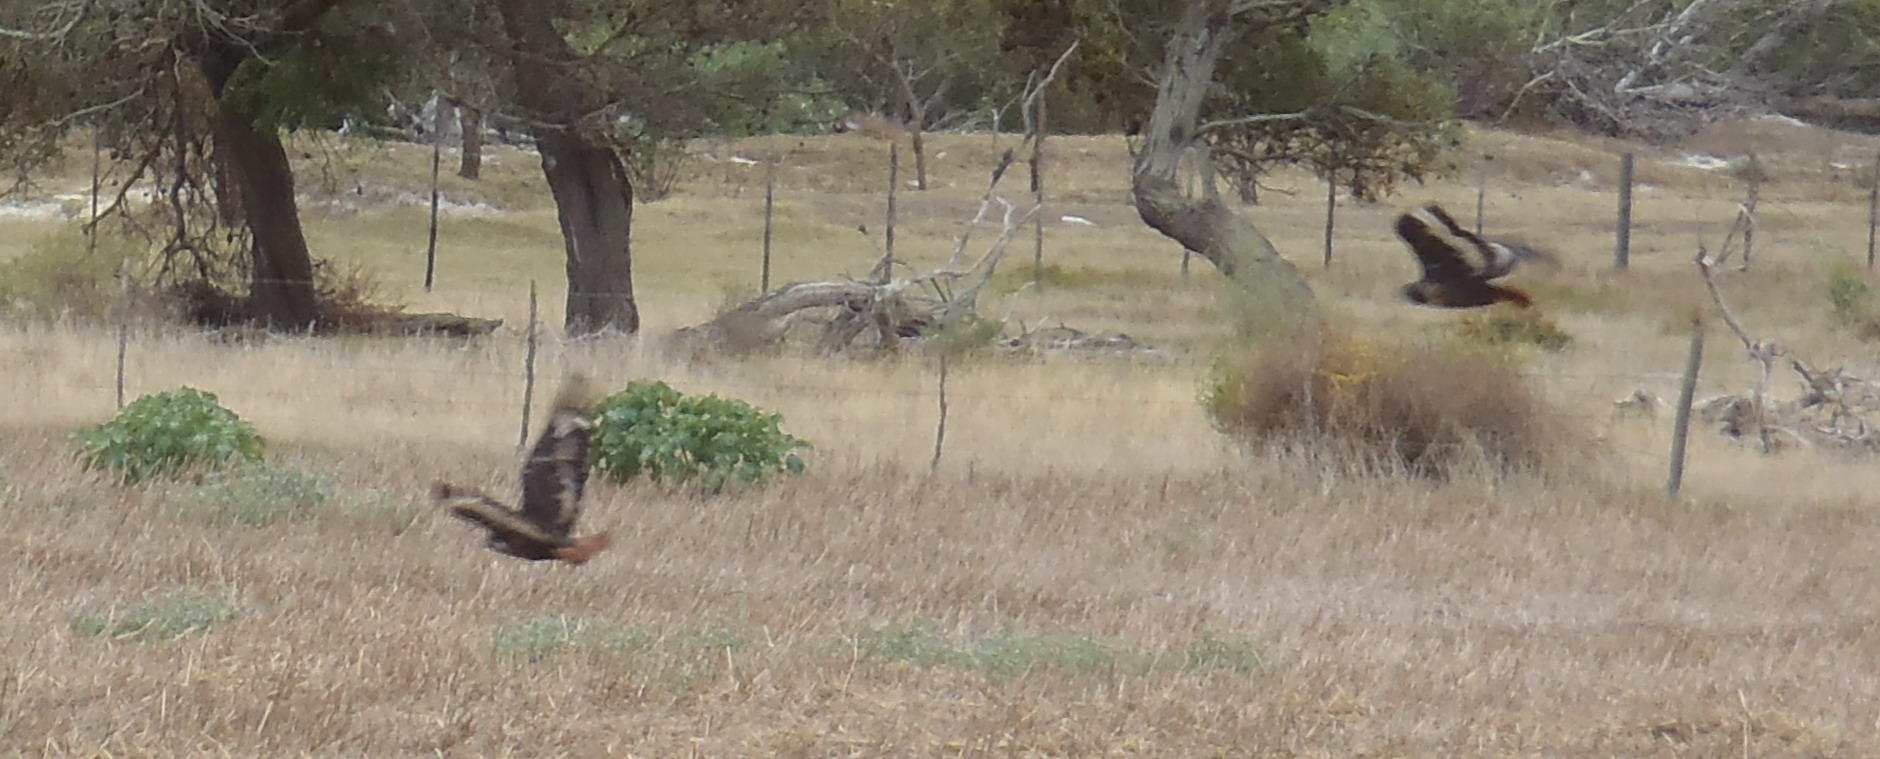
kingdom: Animalia
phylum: Chordata
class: Aves
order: Accipitriformes
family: Accipitridae
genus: Buteo
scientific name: Buteo rufofuscus
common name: Jackal buzzard
